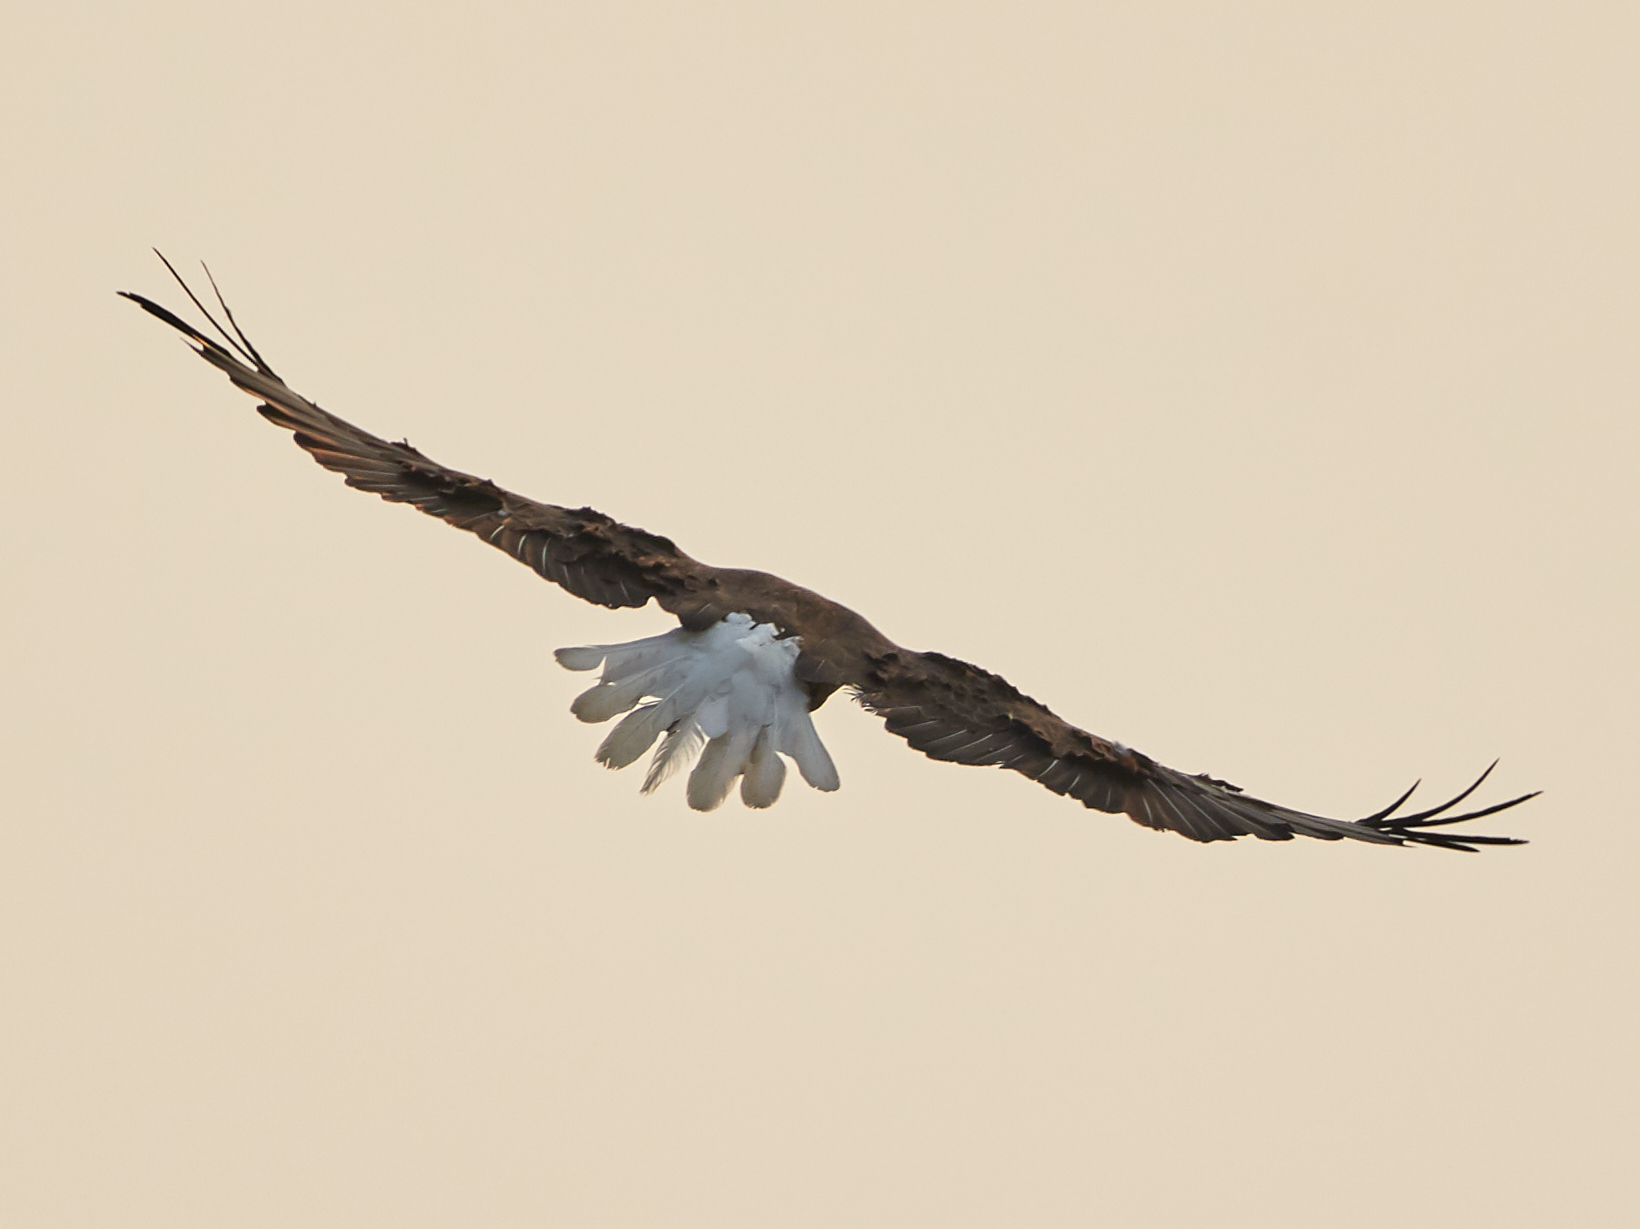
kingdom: Animalia
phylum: Chordata
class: Aves
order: Accipitriformes
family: Accipitridae
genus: Haliaeetus
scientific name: Haliaeetus leucocephalus
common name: Bald eagle
